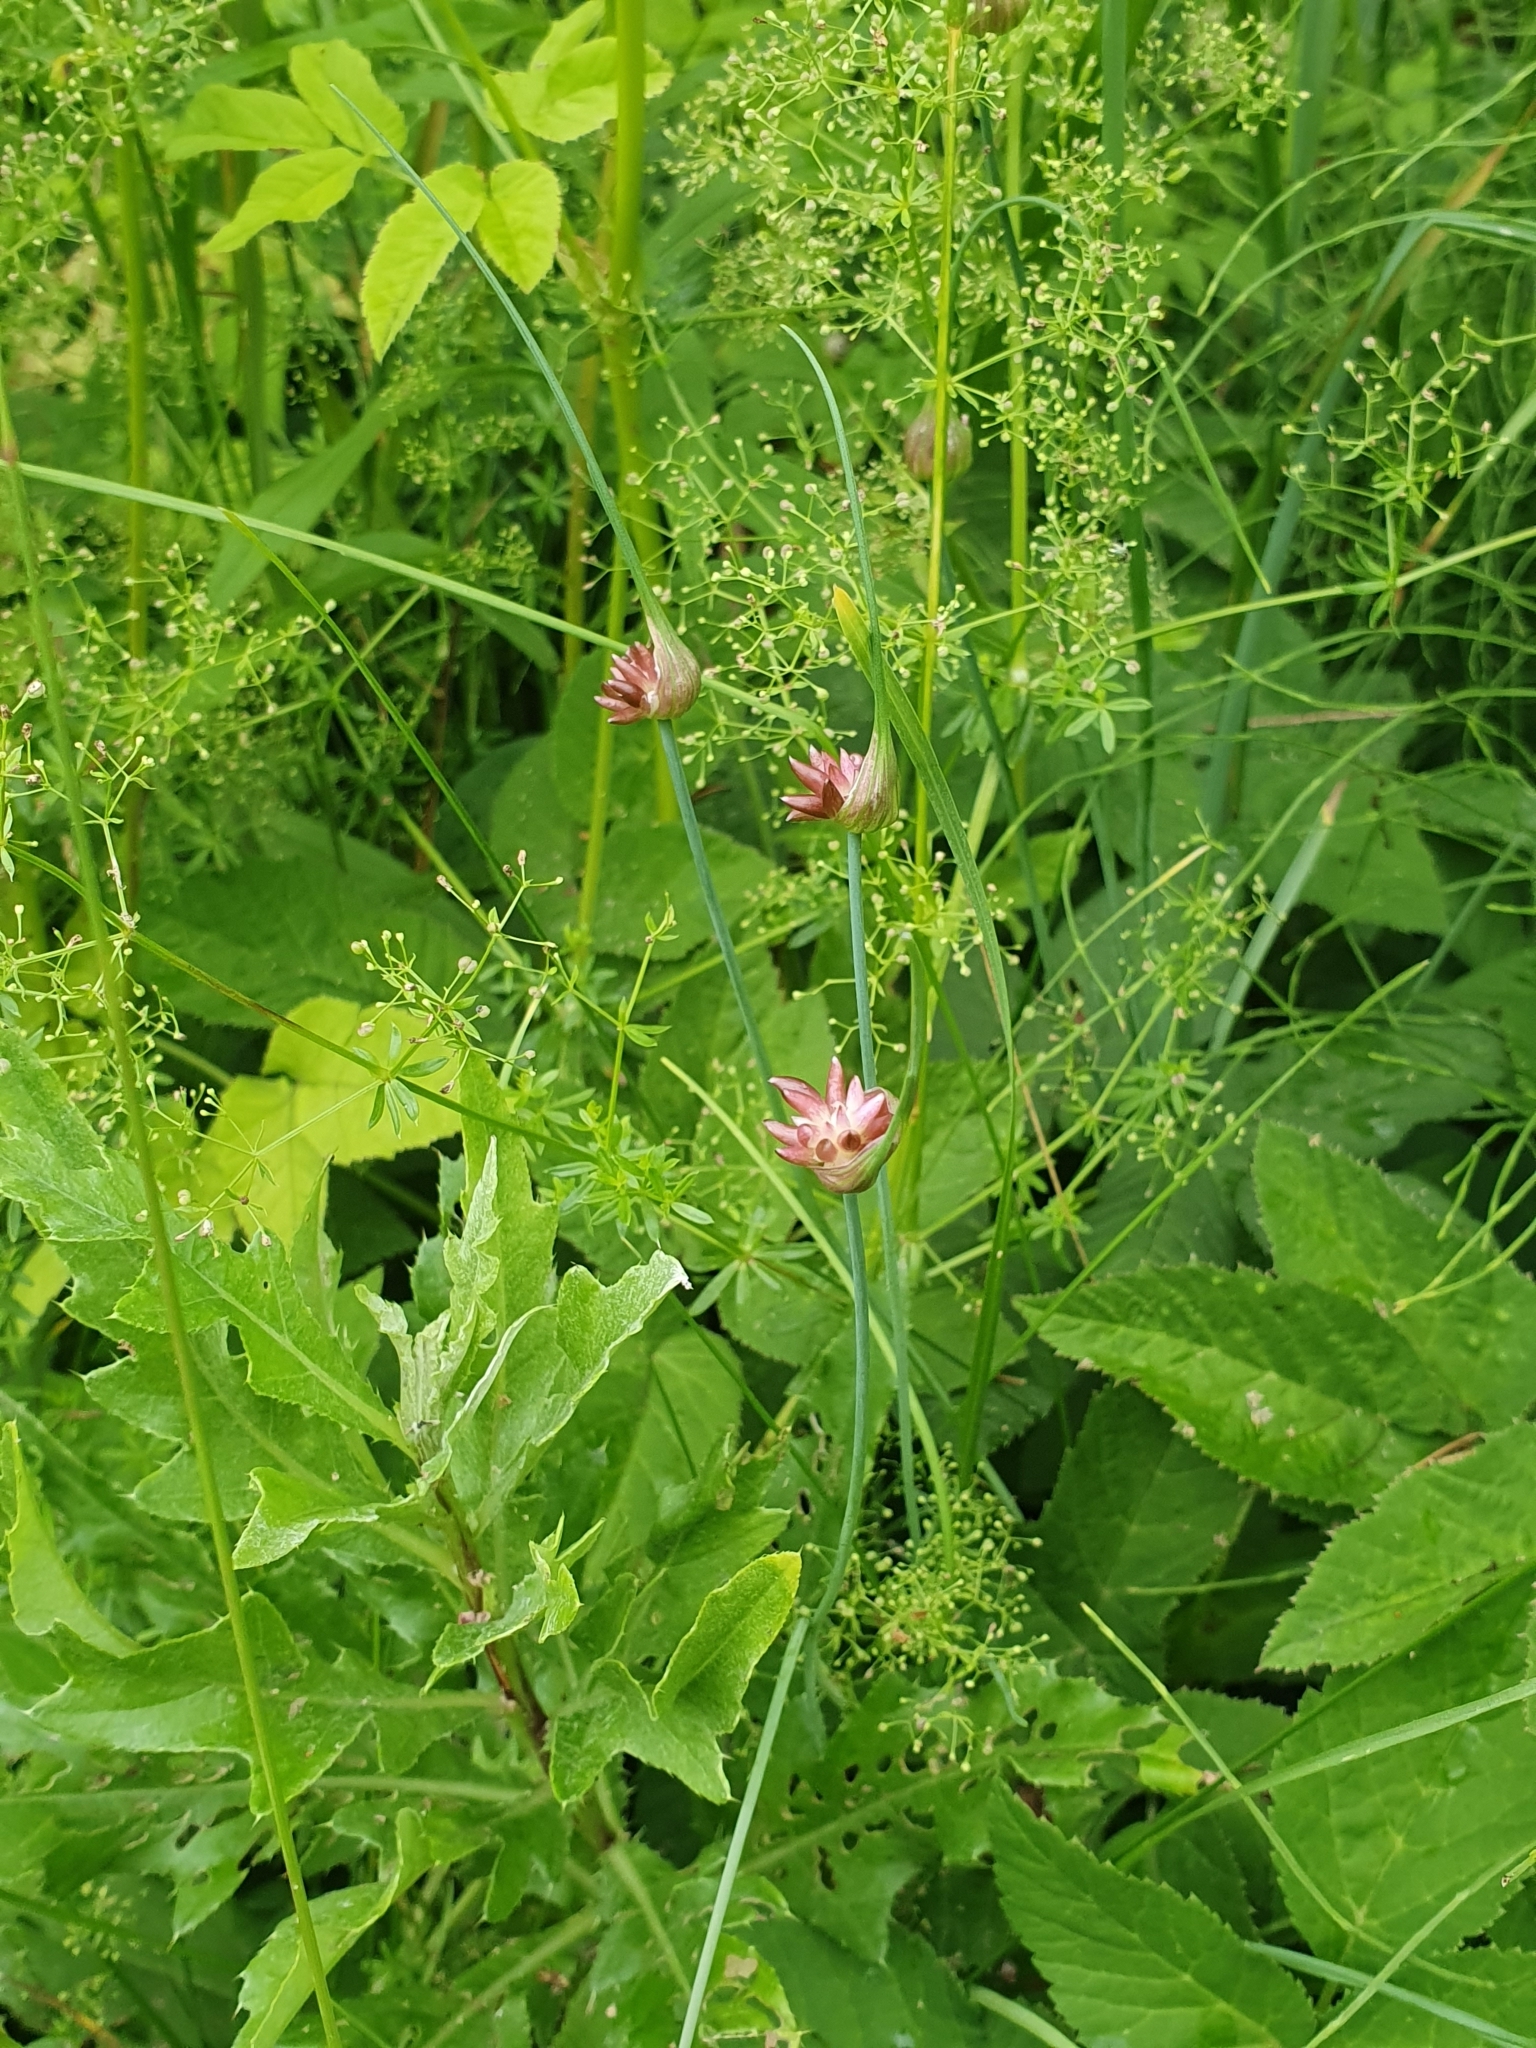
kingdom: Plantae
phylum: Tracheophyta
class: Liliopsida
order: Asparagales
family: Amaryllidaceae
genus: Allium
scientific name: Allium oleraceum
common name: Field garlic
